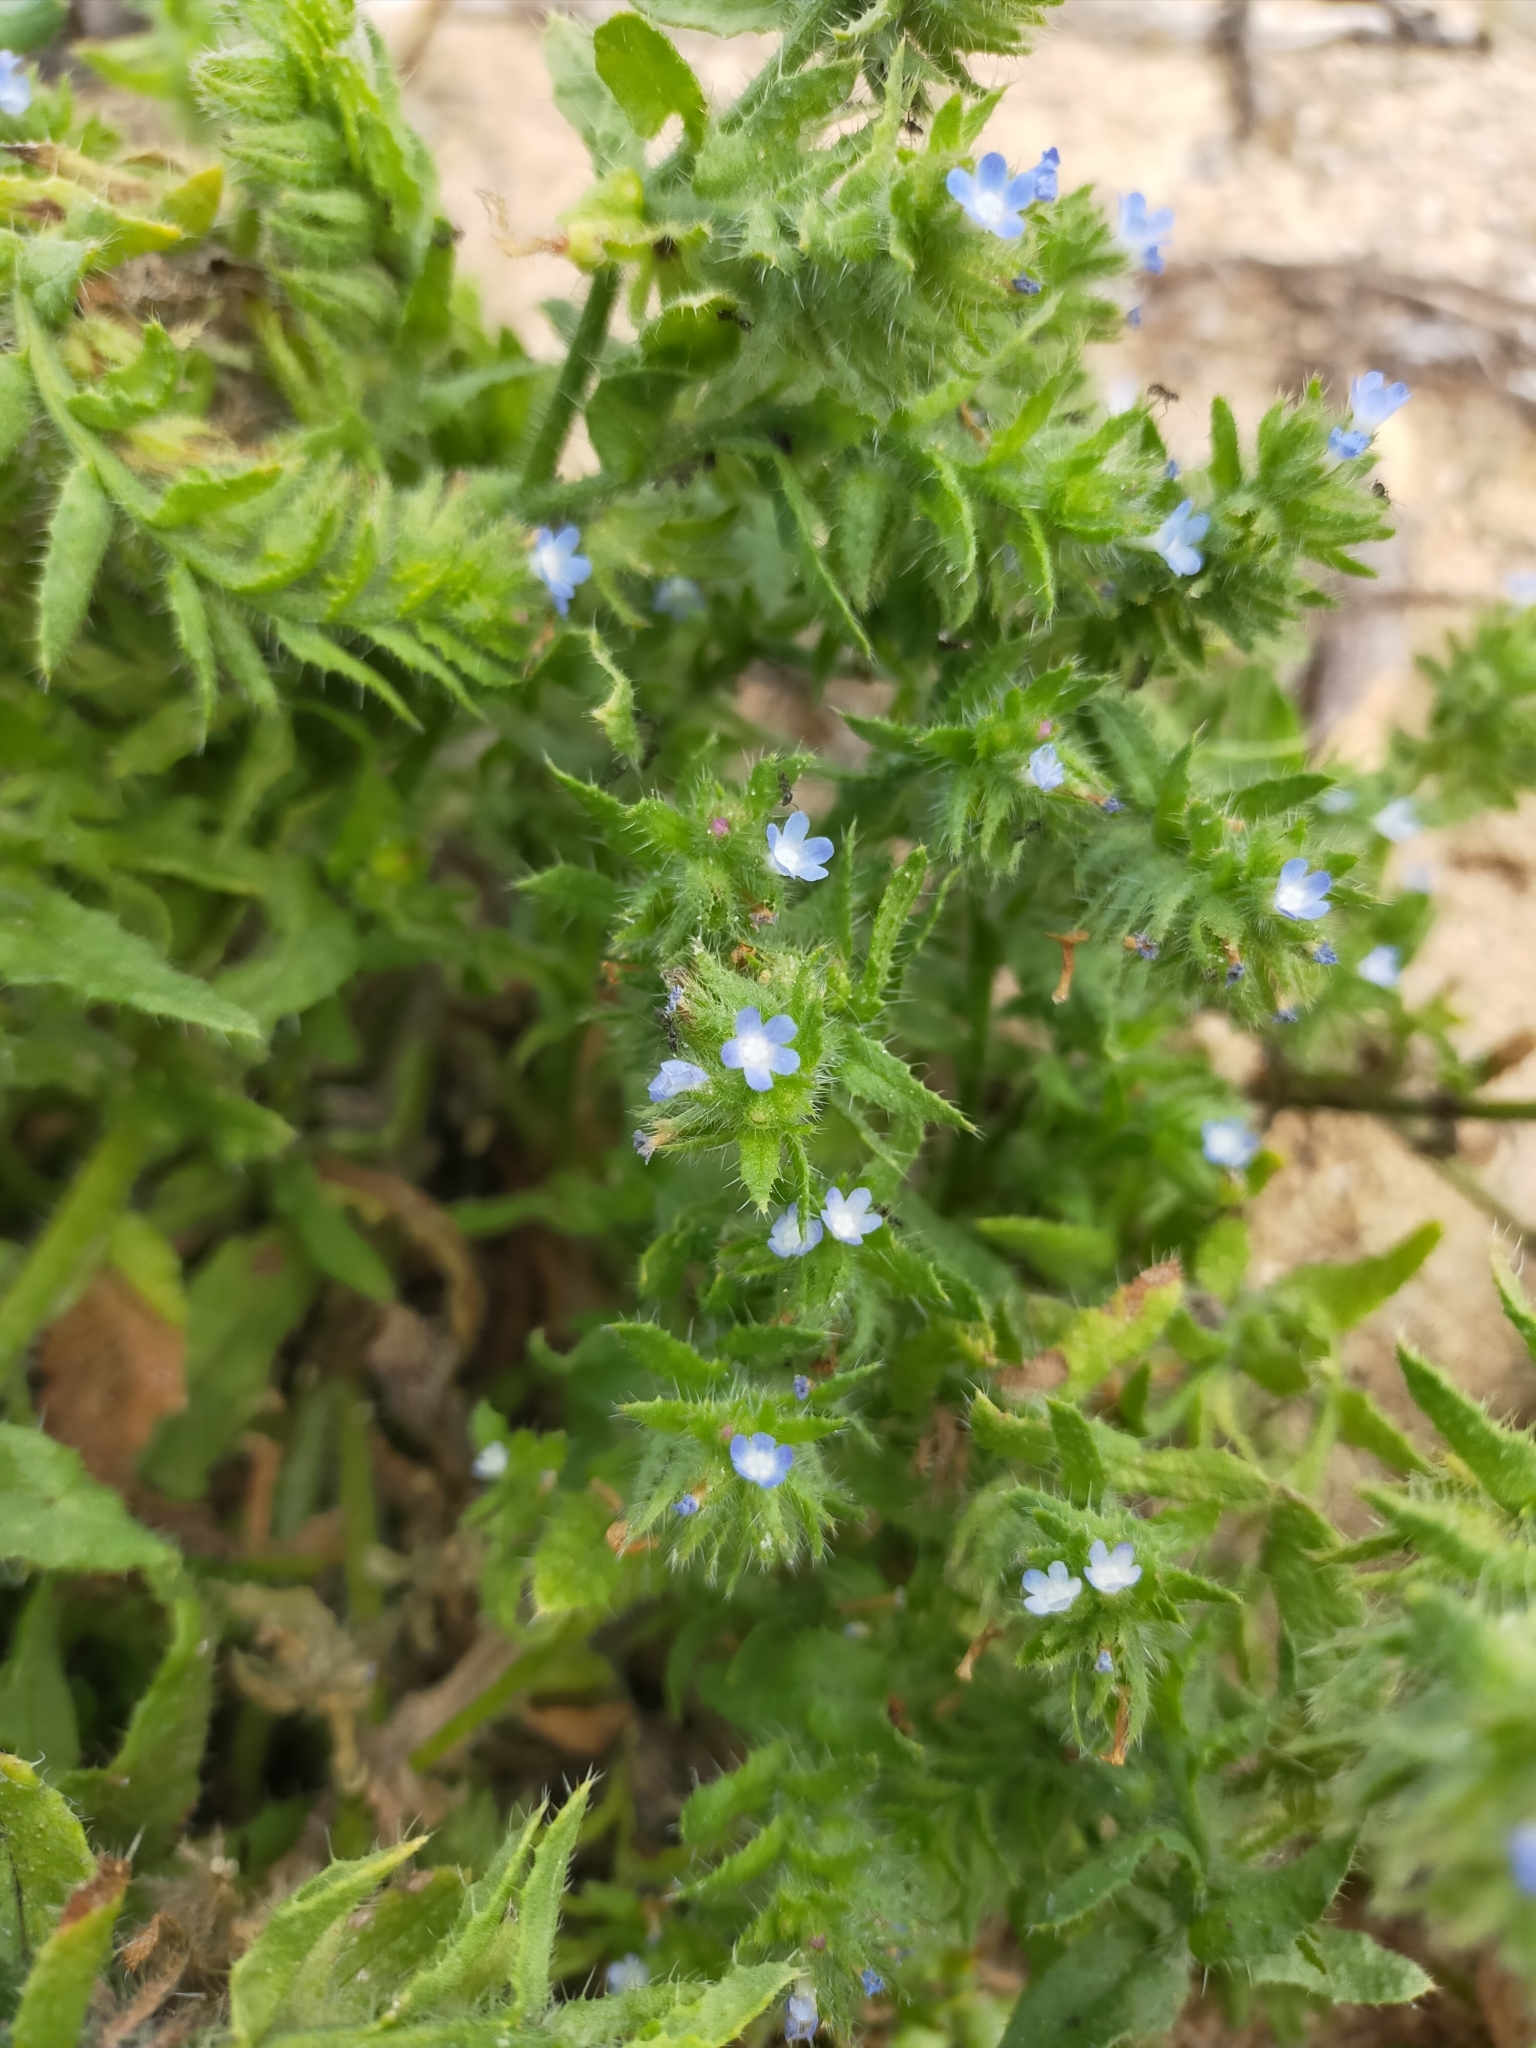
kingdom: Plantae
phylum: Tracheophyta
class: Magnoliopsida
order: Boraginales
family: Boraginaceae
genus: Lycopsis
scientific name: Lycopsis arvensis
